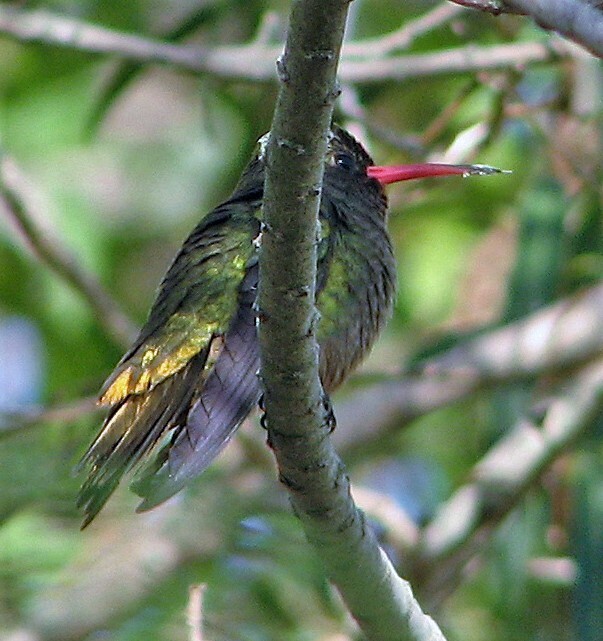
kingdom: Animalia
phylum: Chordata
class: Aves
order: Apodiformes
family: Trochilidae
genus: Hylocharis
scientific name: Hylocharis chrysura
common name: Gilded sapphire
